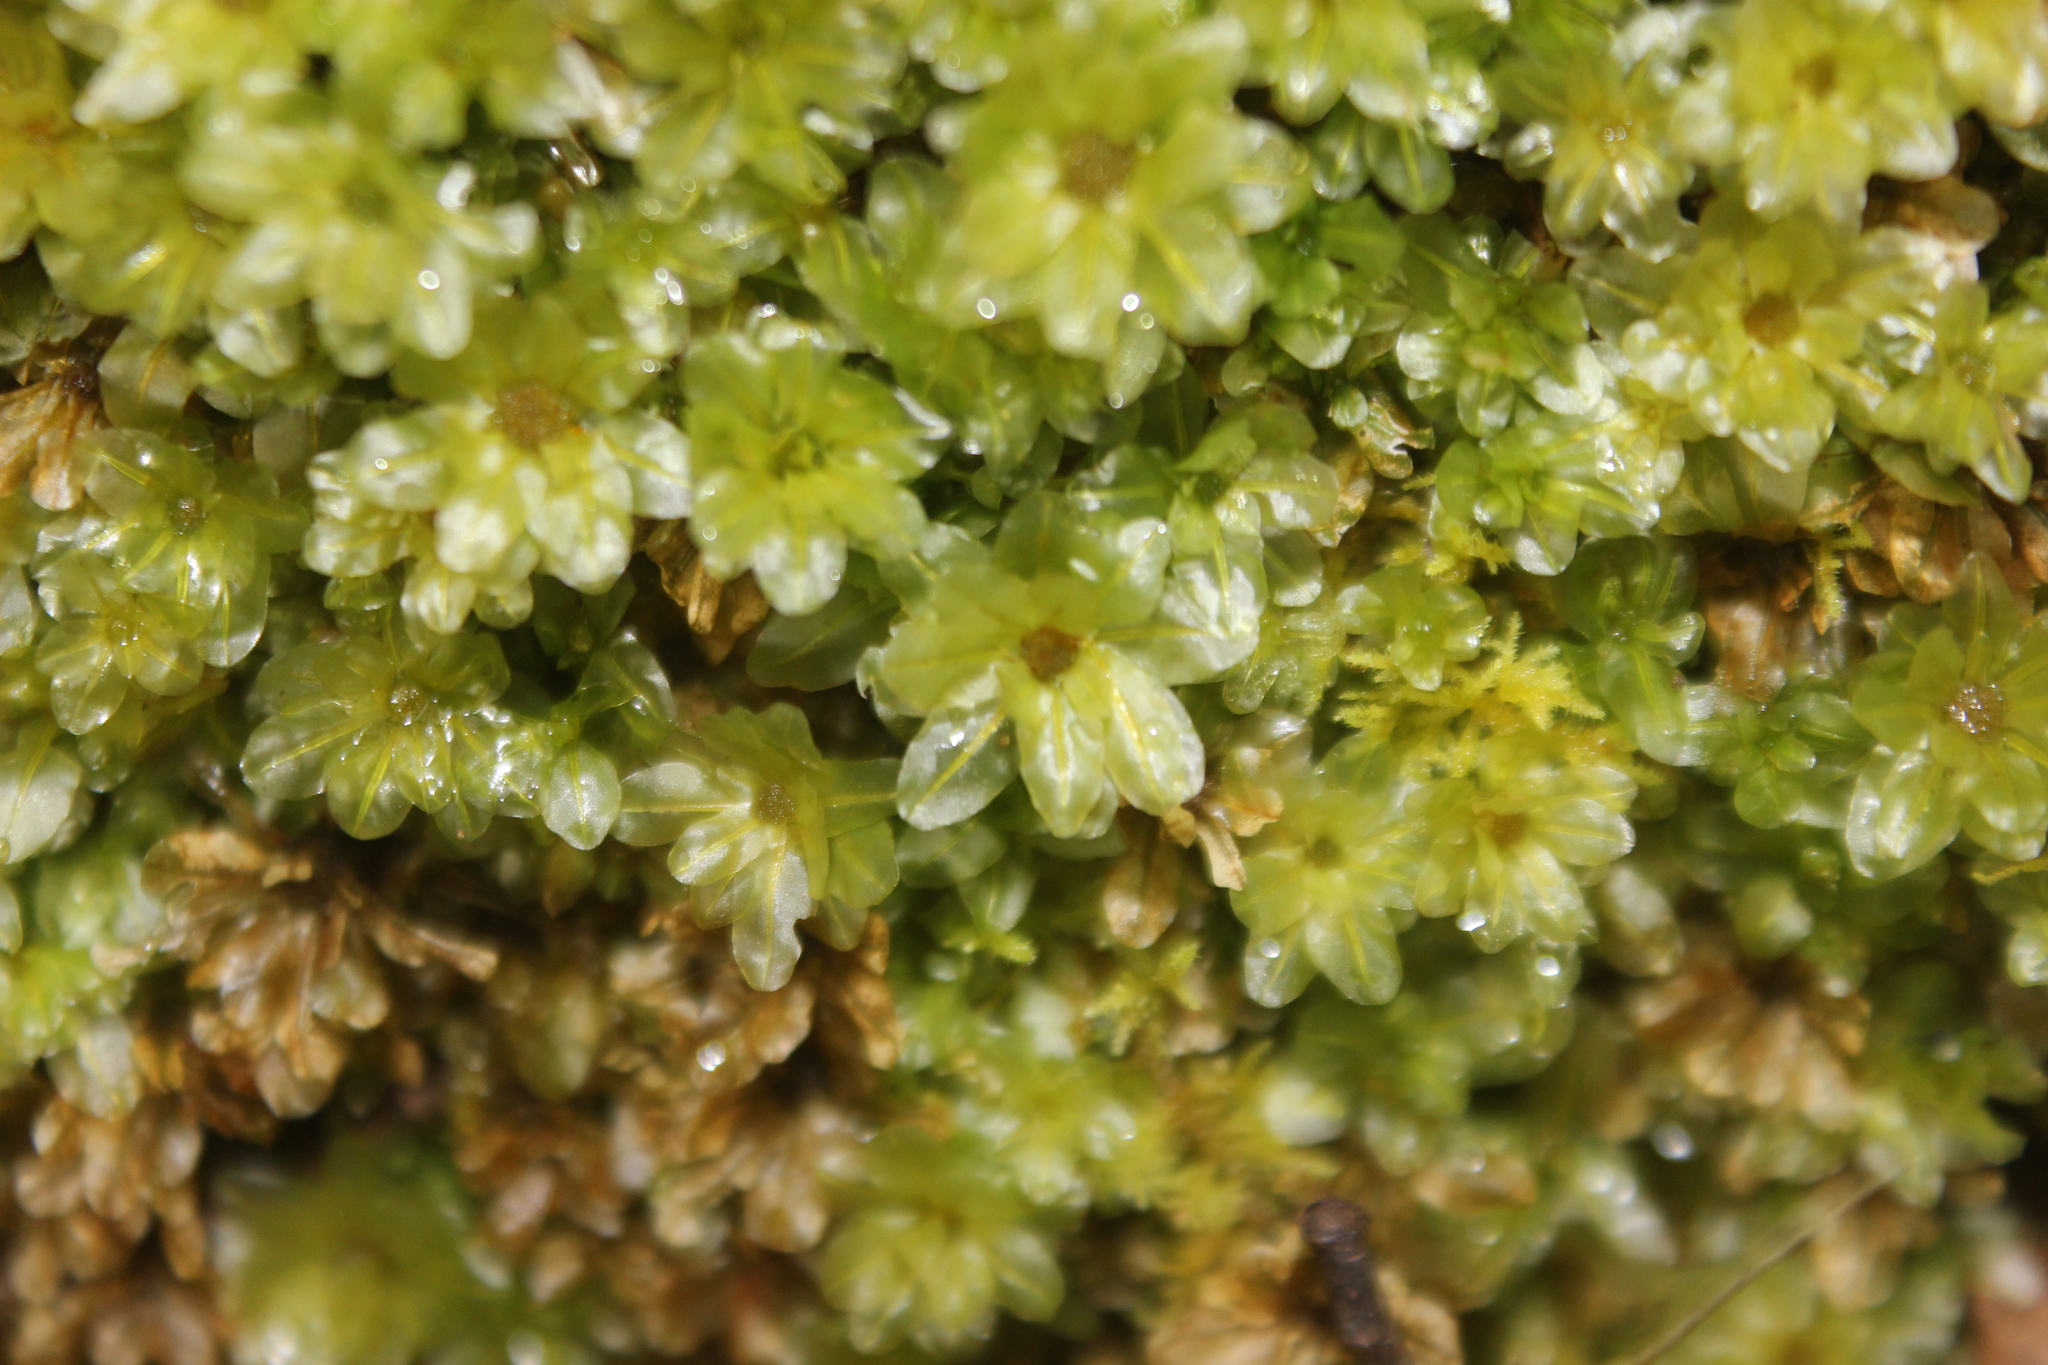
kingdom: Plantae
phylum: Bryophyta
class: Bryopsida
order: Bryales
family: Mniaceae
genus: Plagiomnium
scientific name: Plagiomnium novae-zealandiae
